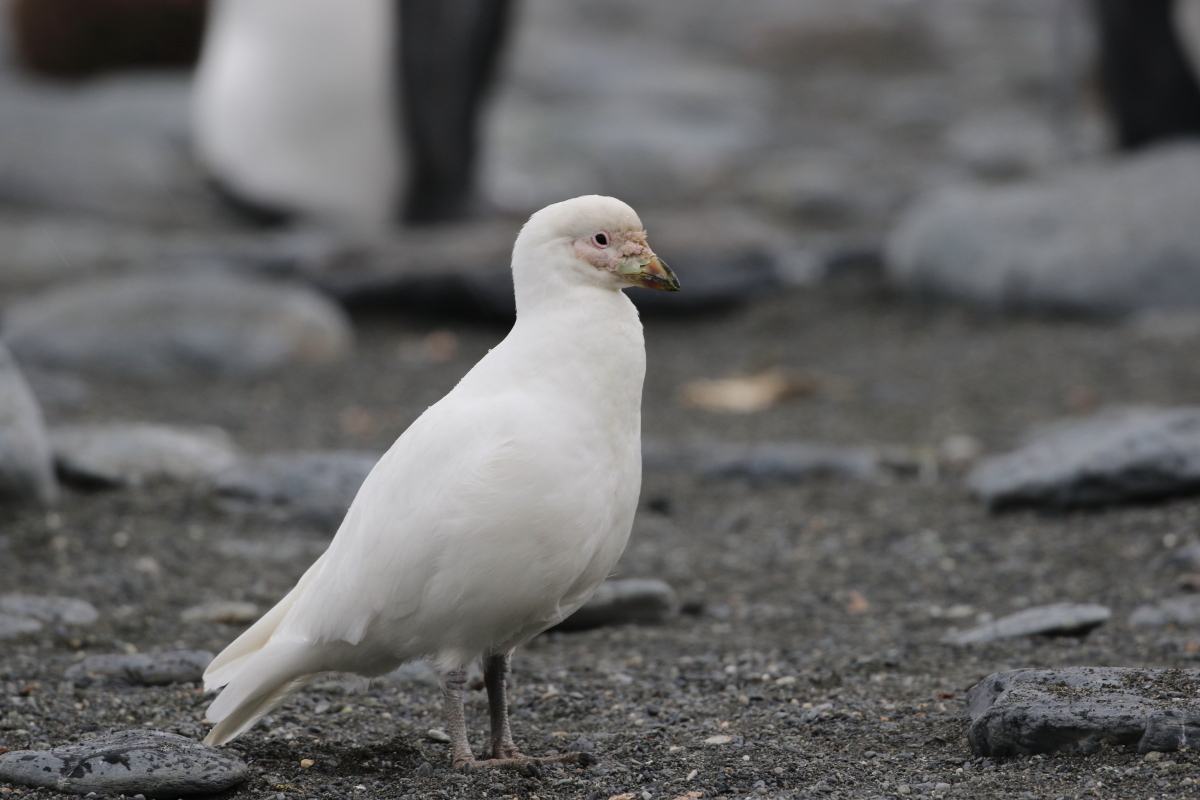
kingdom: Animalia
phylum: Chordata
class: Aves
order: Charadriiformes
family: Chionidae
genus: Chionis
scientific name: Chionis albus
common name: Snowy sheathbill
